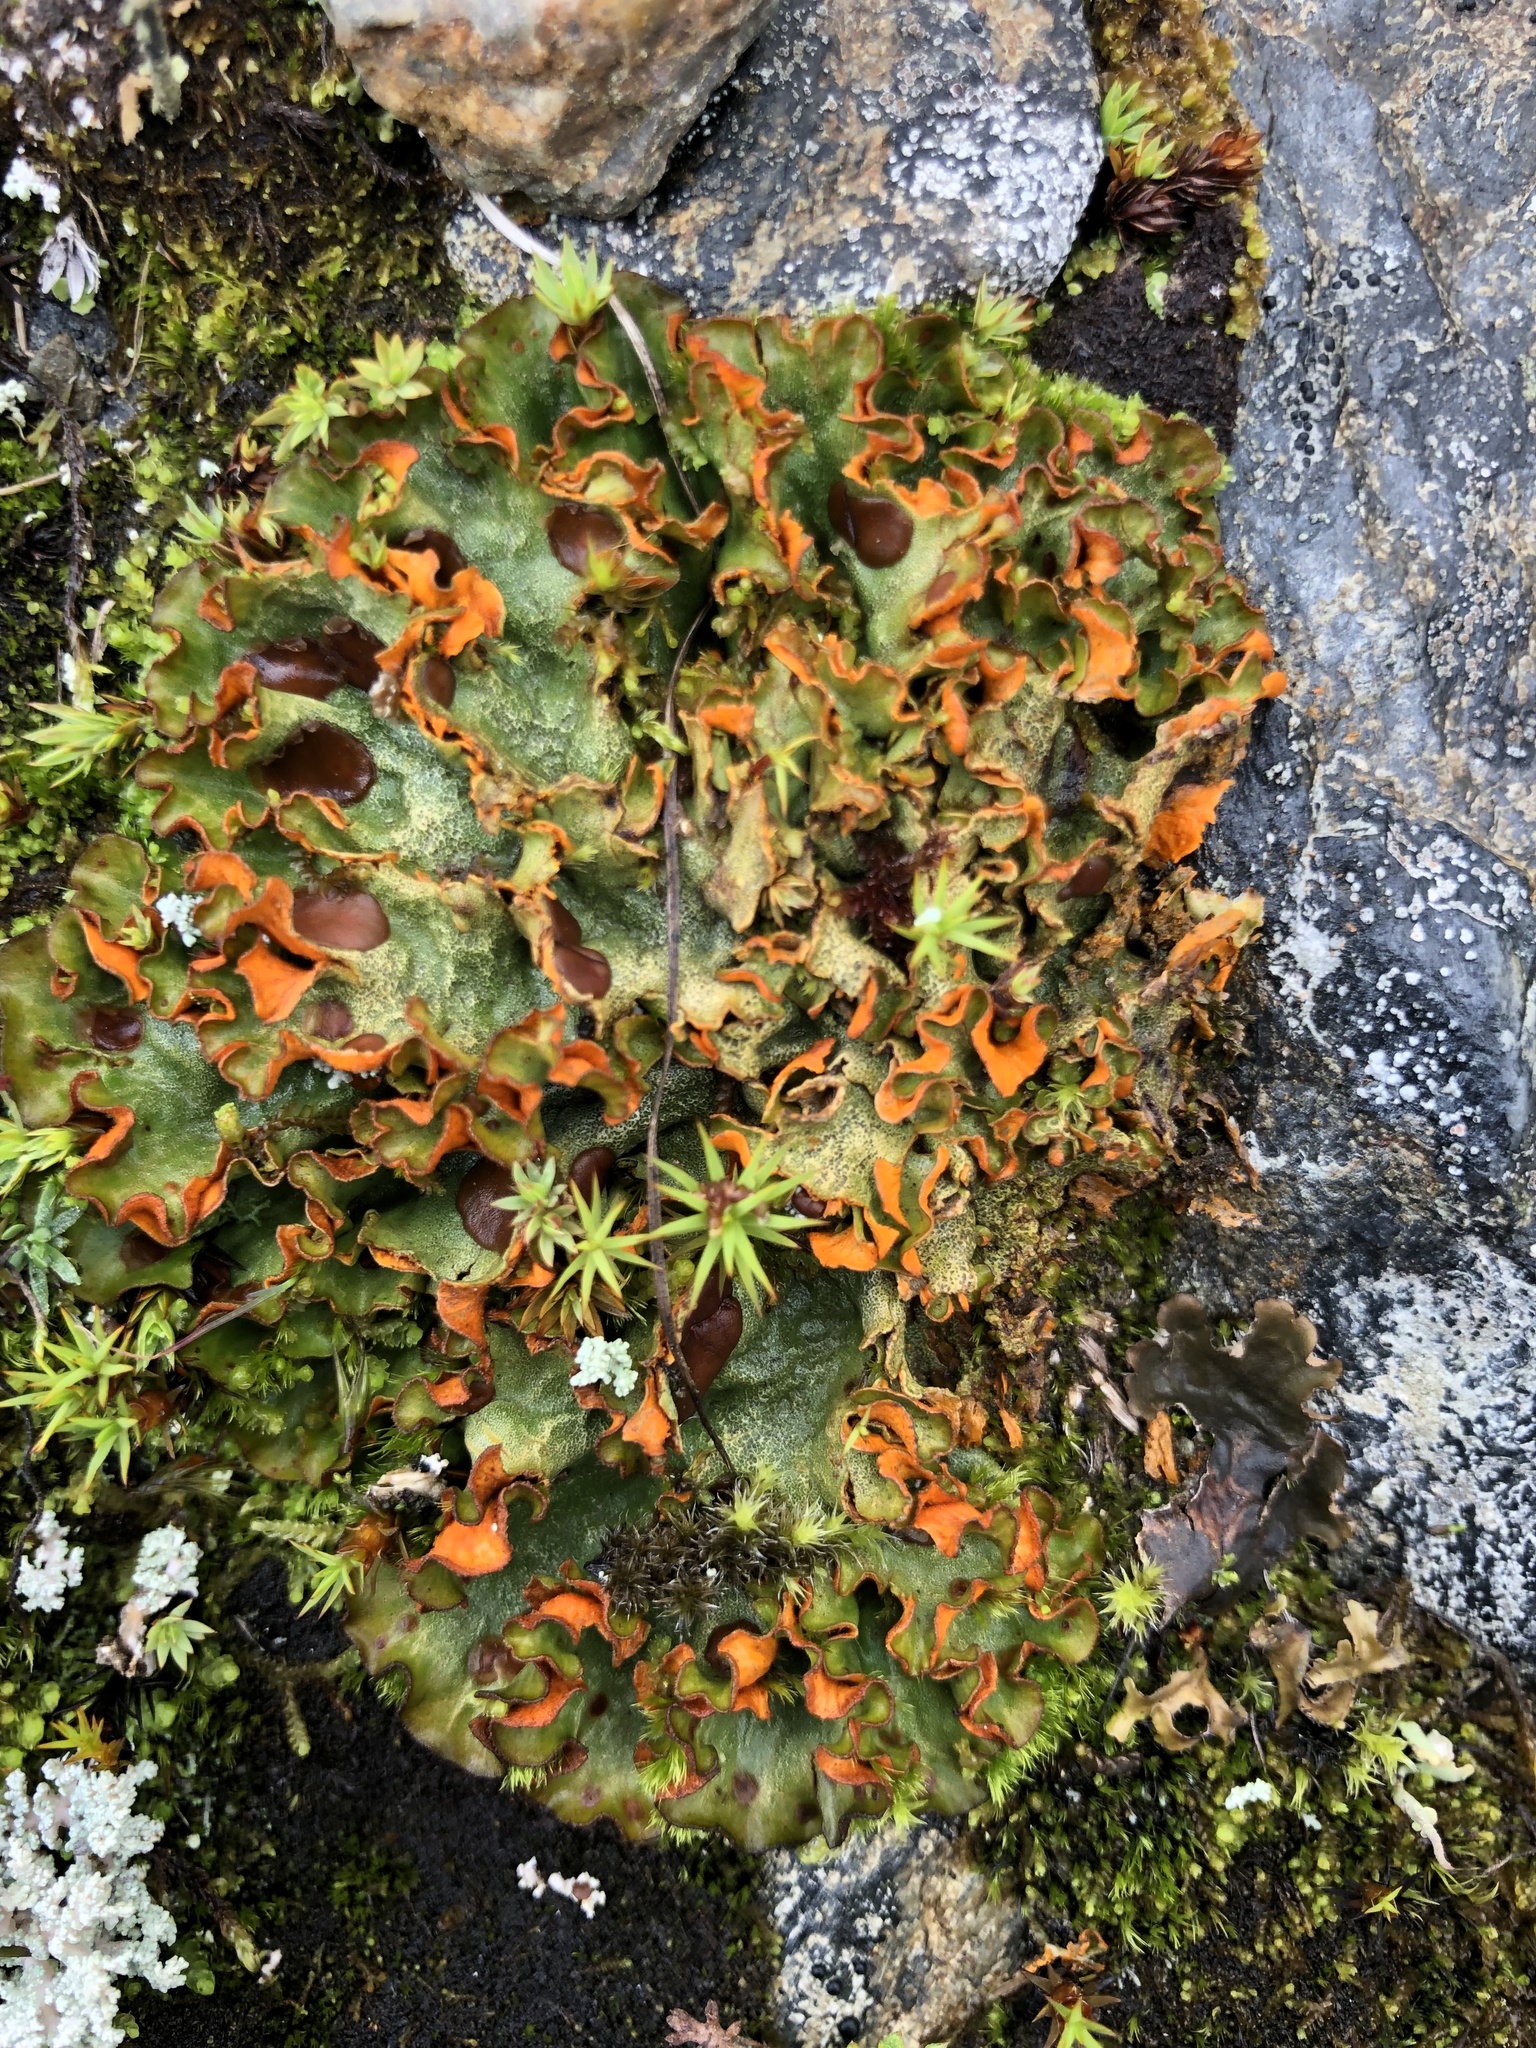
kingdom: Fungi
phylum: Ascomycota
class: Lecanoromycetes
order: Peltigerales
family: Peltigeraceae
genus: Solorina
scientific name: Solorina crocea
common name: Mountain saffron
